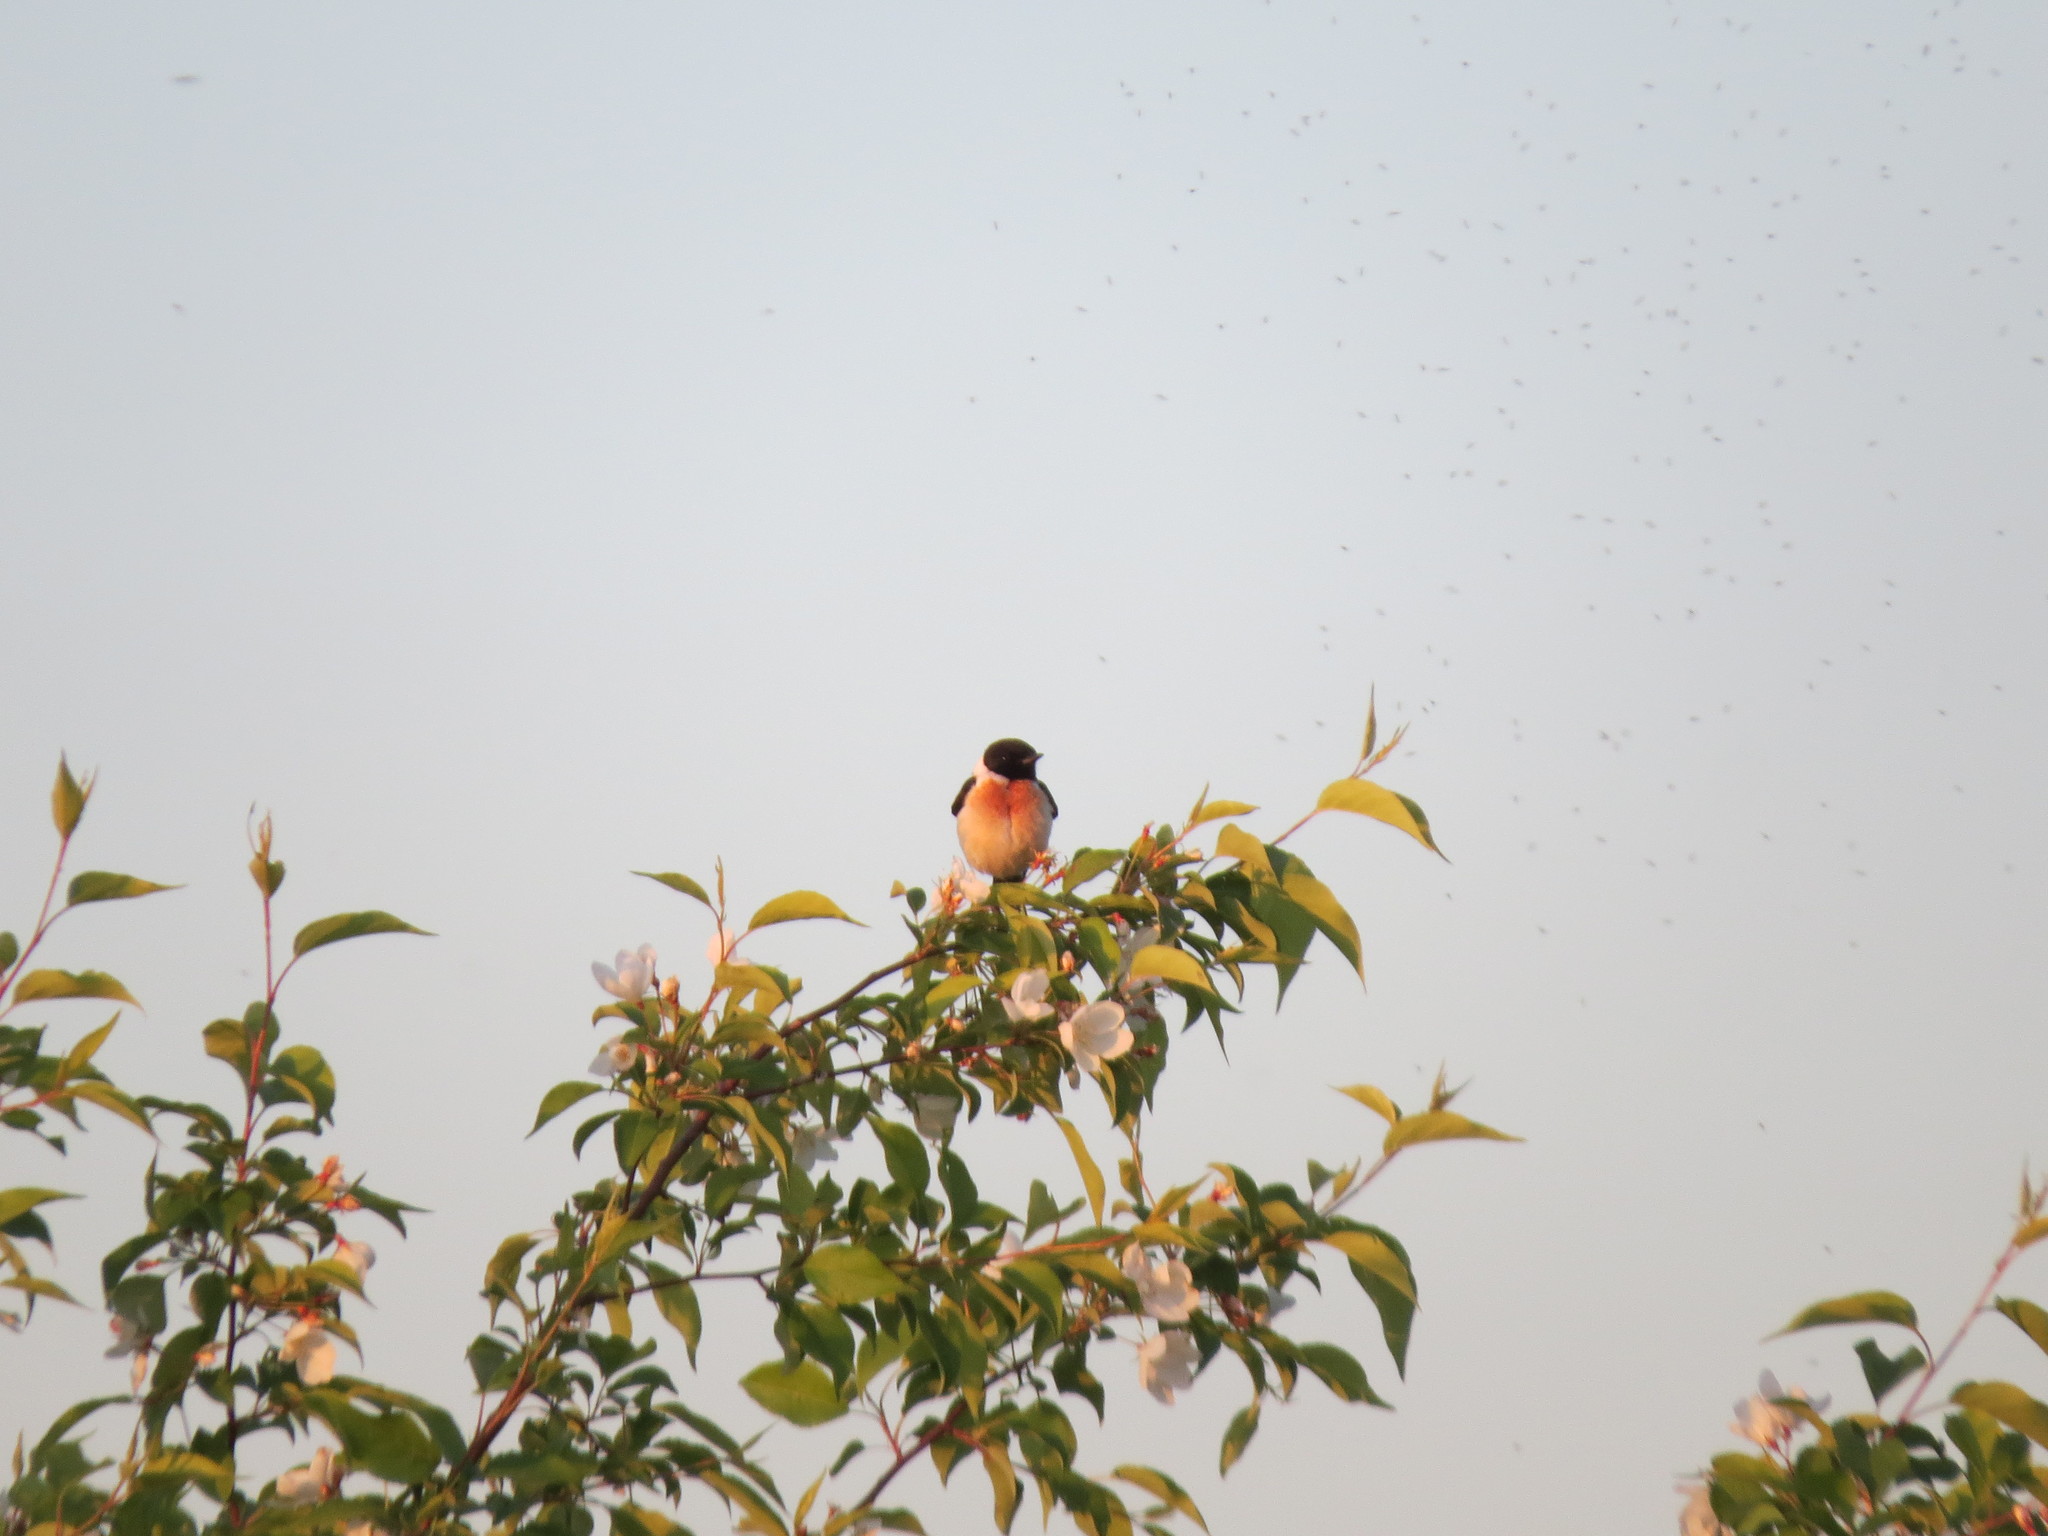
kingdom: Animalia
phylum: Chordata
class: Aves
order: Passeriformes
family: Muscicapidae
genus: Saxicola
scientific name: Saxicola maurus
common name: Siberian stonechat
